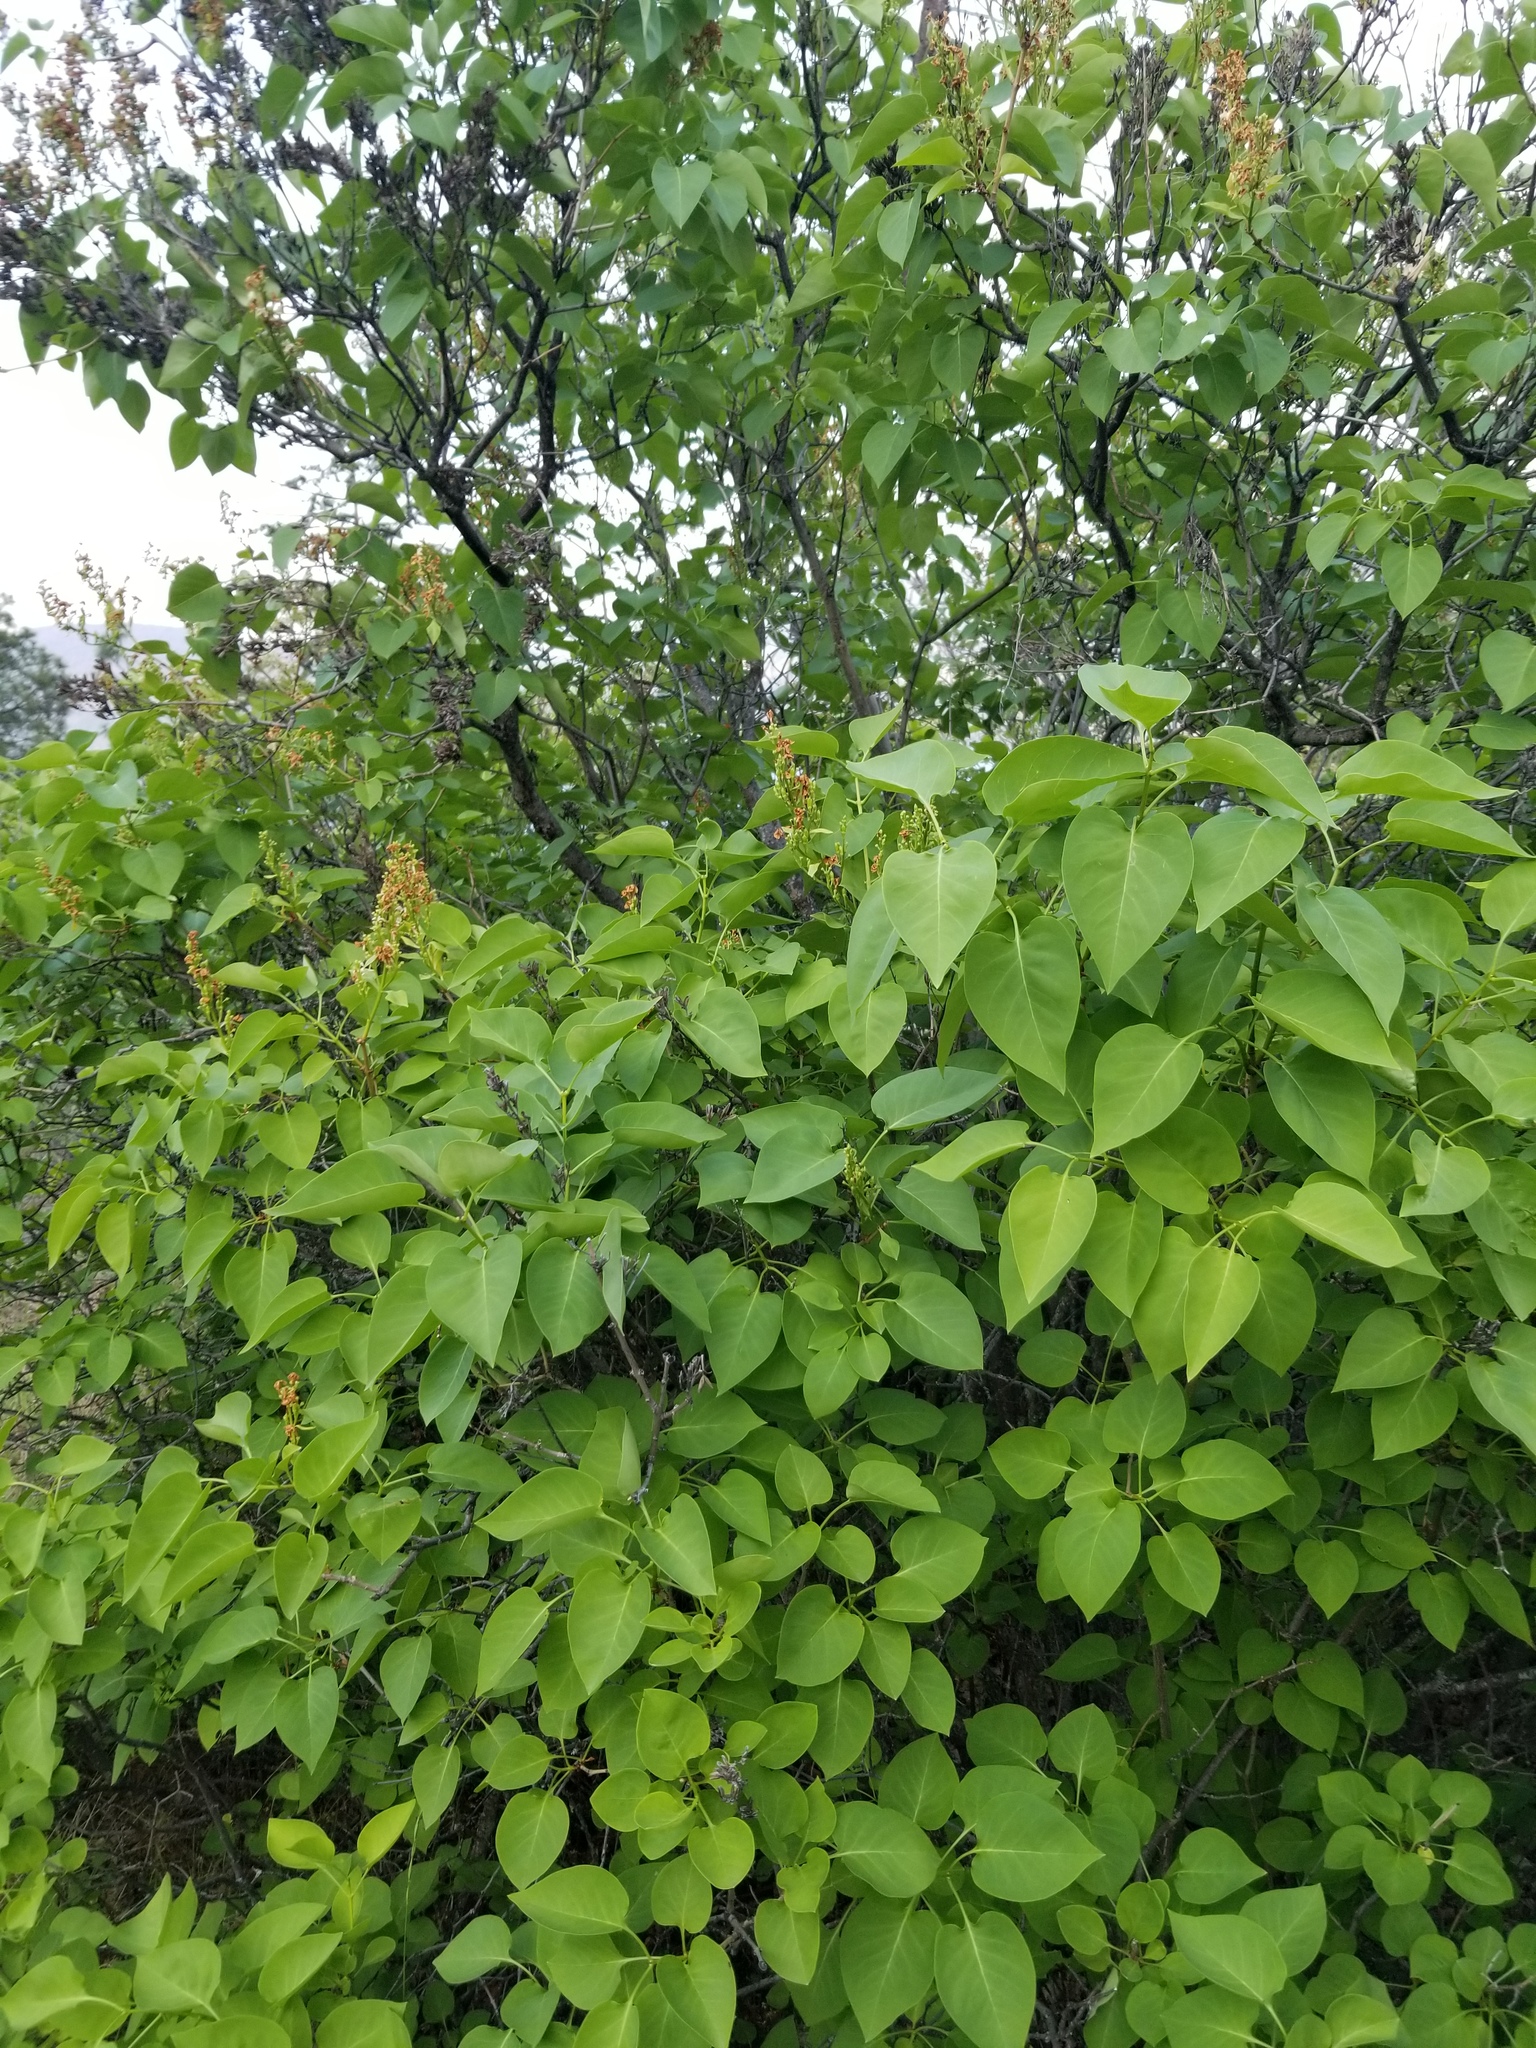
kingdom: Plantae
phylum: Tracheophyta
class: Magnoliopsida
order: Lamiales
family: Oleaceae
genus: Syringa
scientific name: Syringa vulgaris
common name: Common lilac
